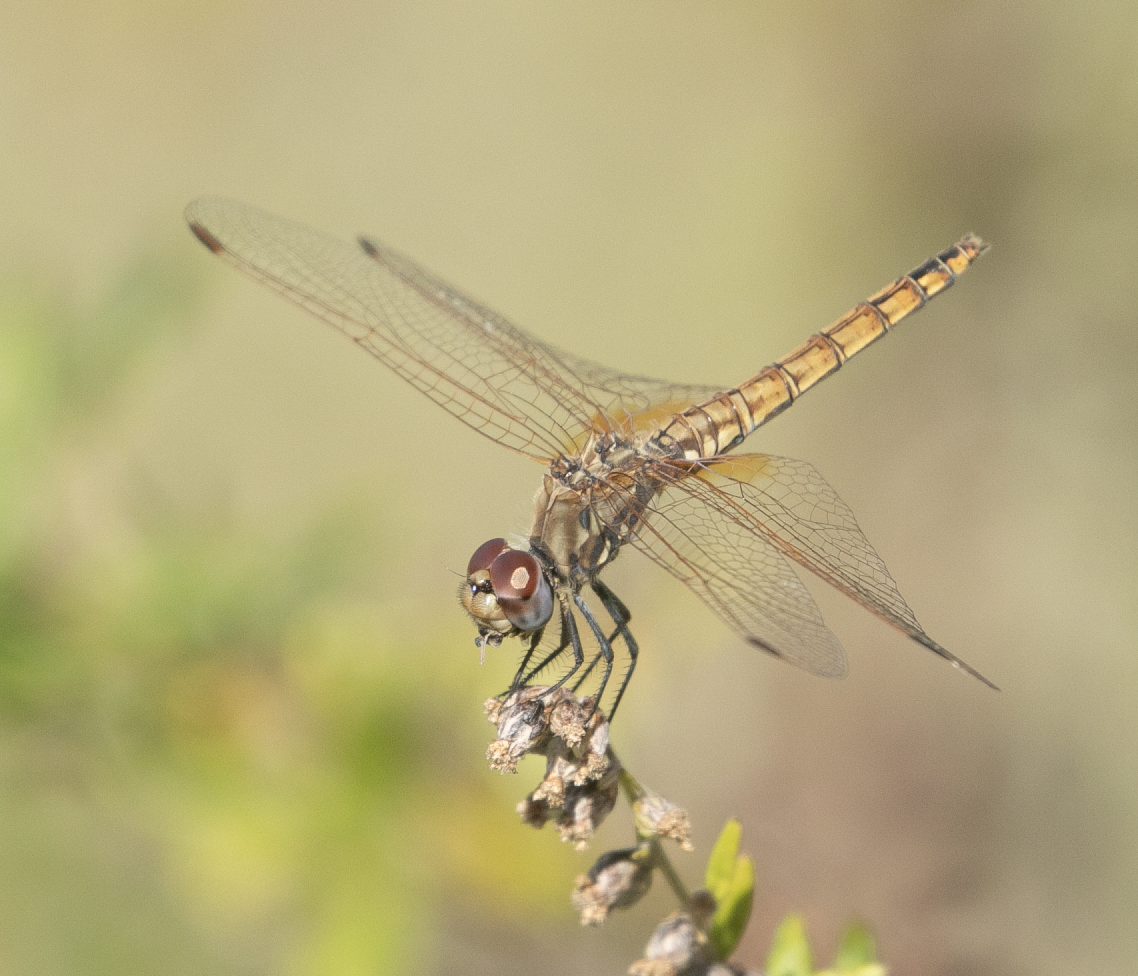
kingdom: Animalia
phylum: Arthropoda
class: Insecta
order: Odonata
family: Libellulidae
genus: Trithemis
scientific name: Trithemis annulata
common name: Violet dropwing
